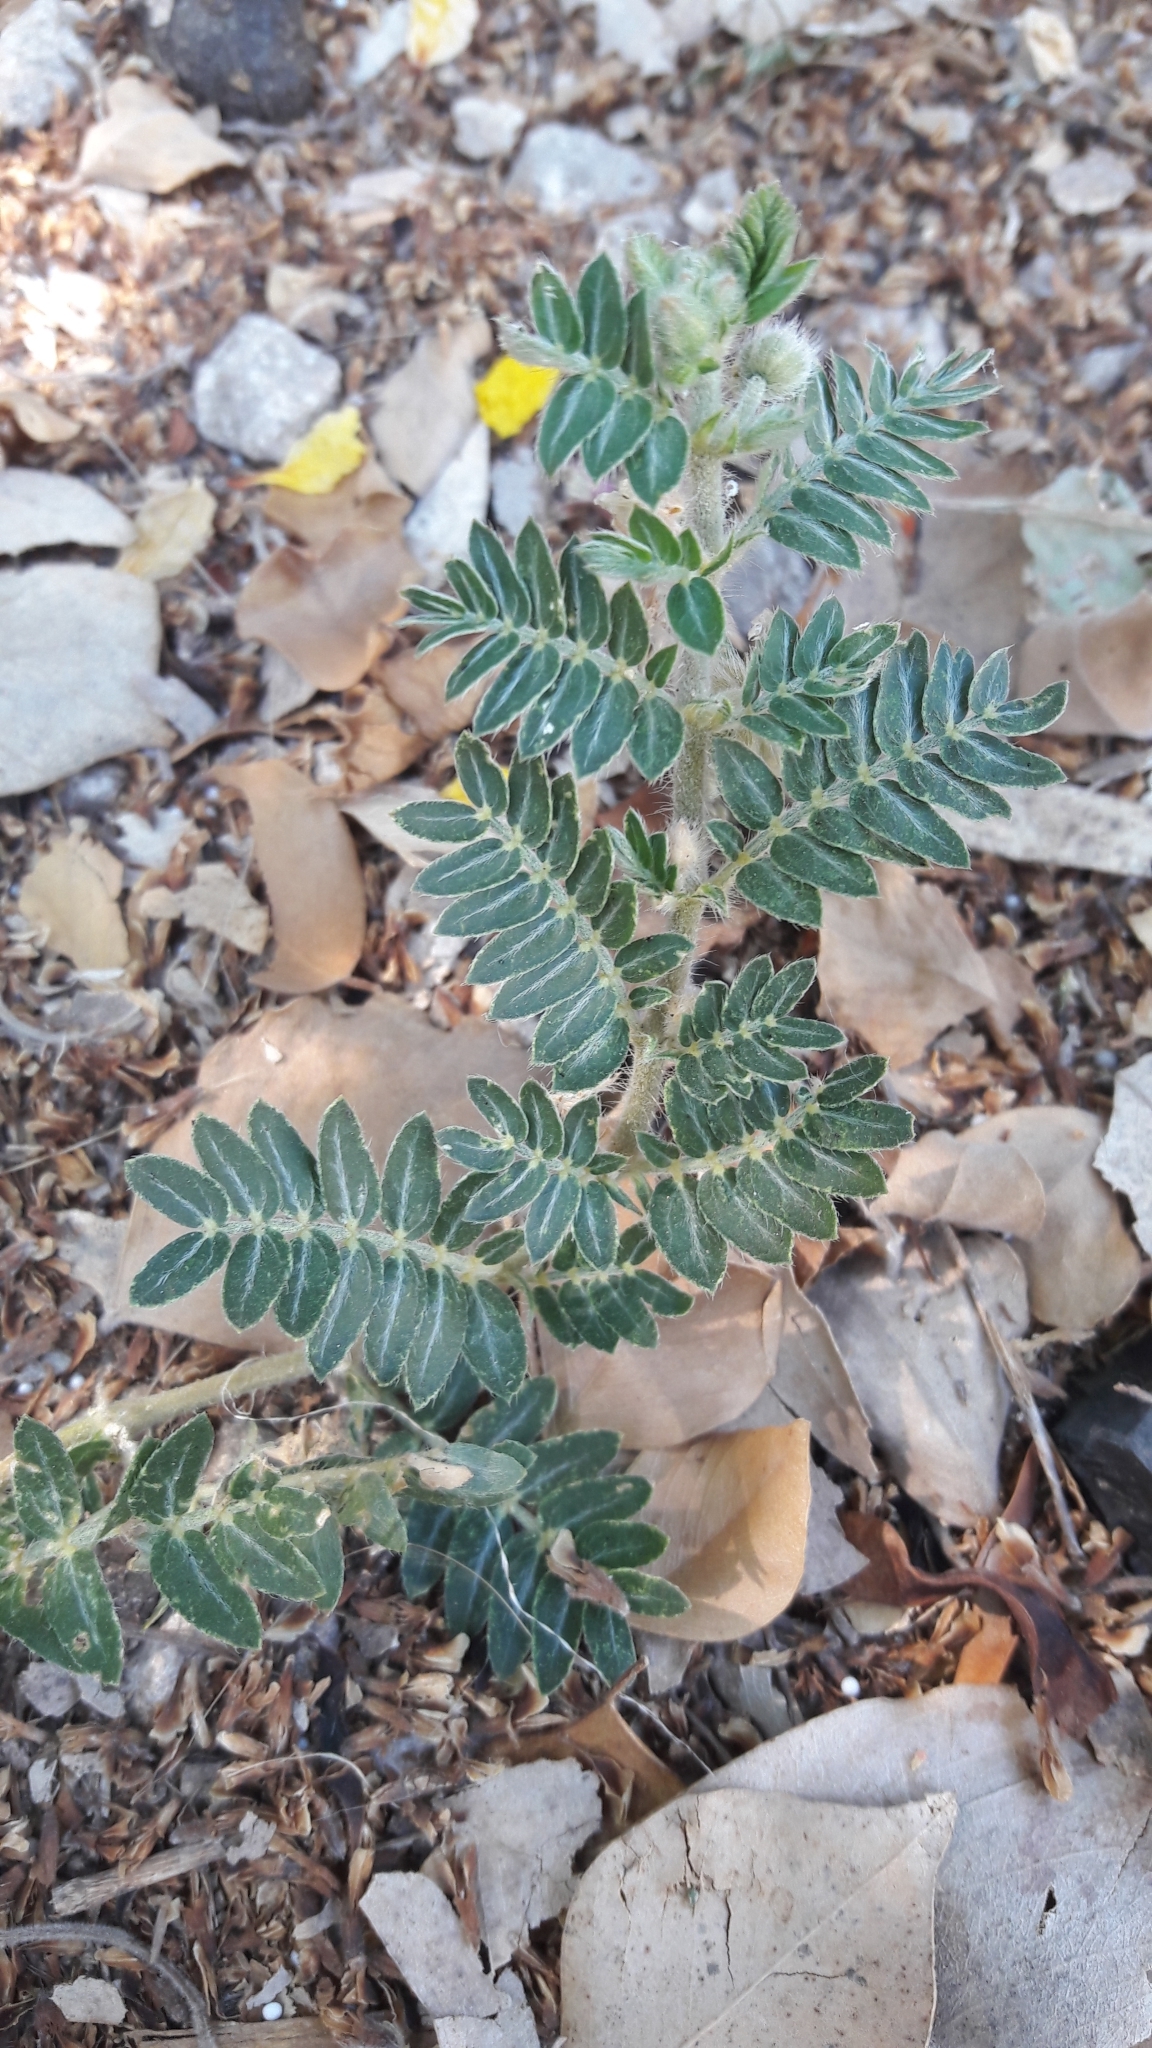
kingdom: Plantae
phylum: Tracheophyta
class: Magnoliopsida
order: Zygophyllales
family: Zygophyllaceae
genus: Tribulus
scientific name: Tribulus terrestris
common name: Puncturevine
